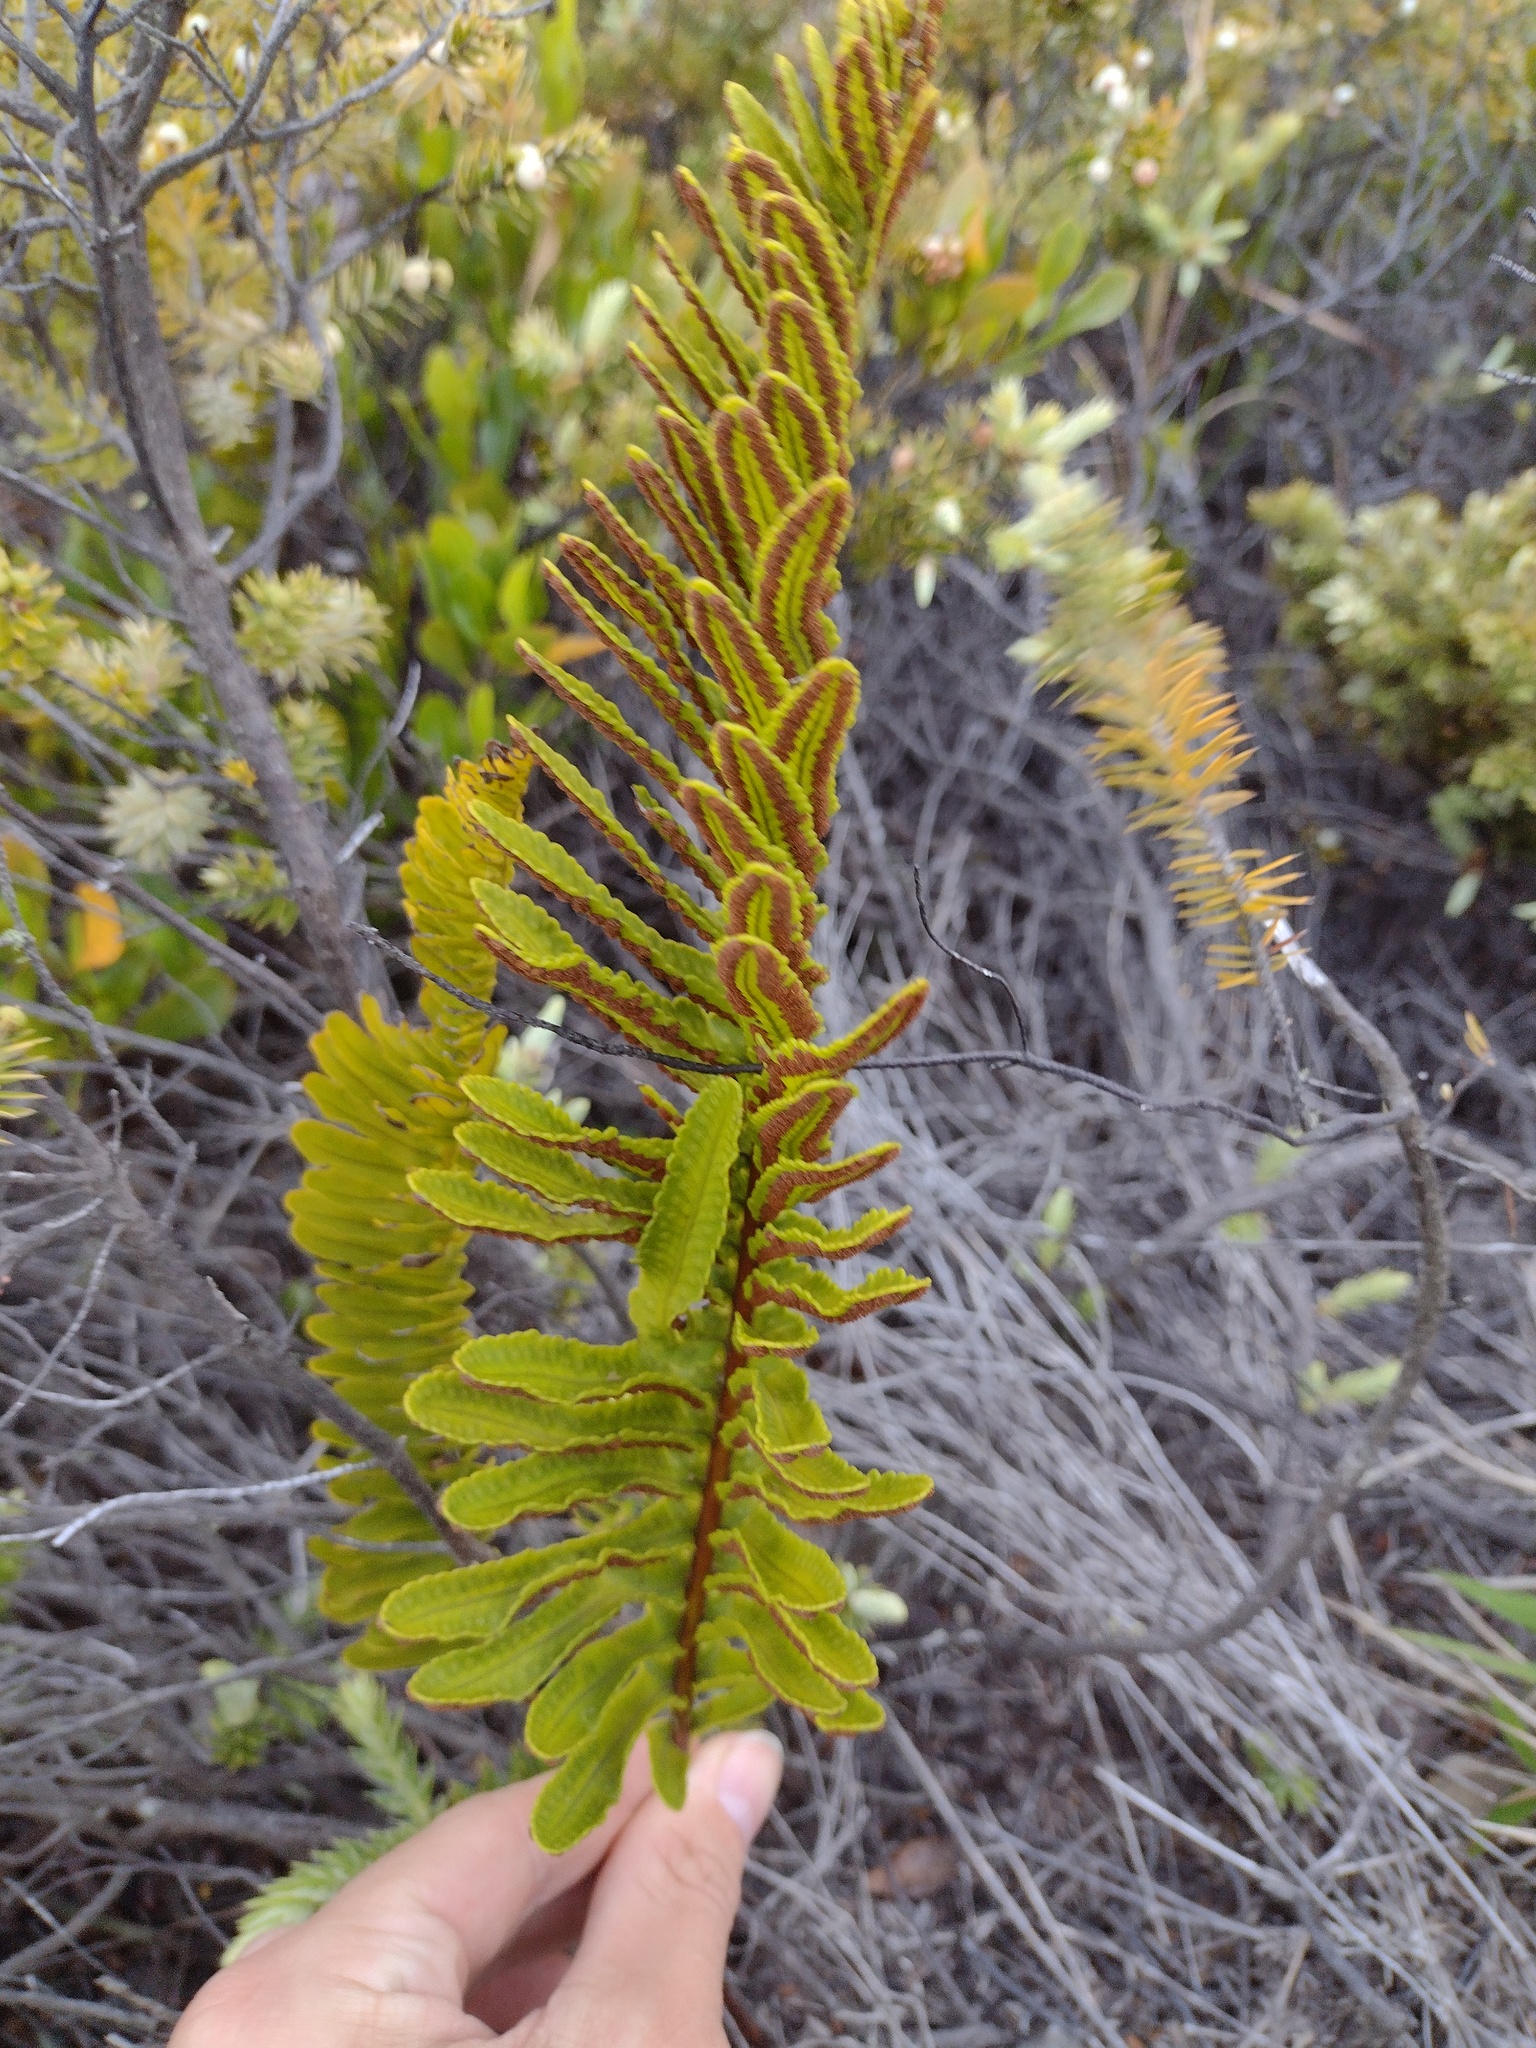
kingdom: Plantae
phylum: Tracheophyta
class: Polypodiopsida
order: Polypodiales
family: Polypodiaceae
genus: Polypodium
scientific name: Polypodium pellucidum
